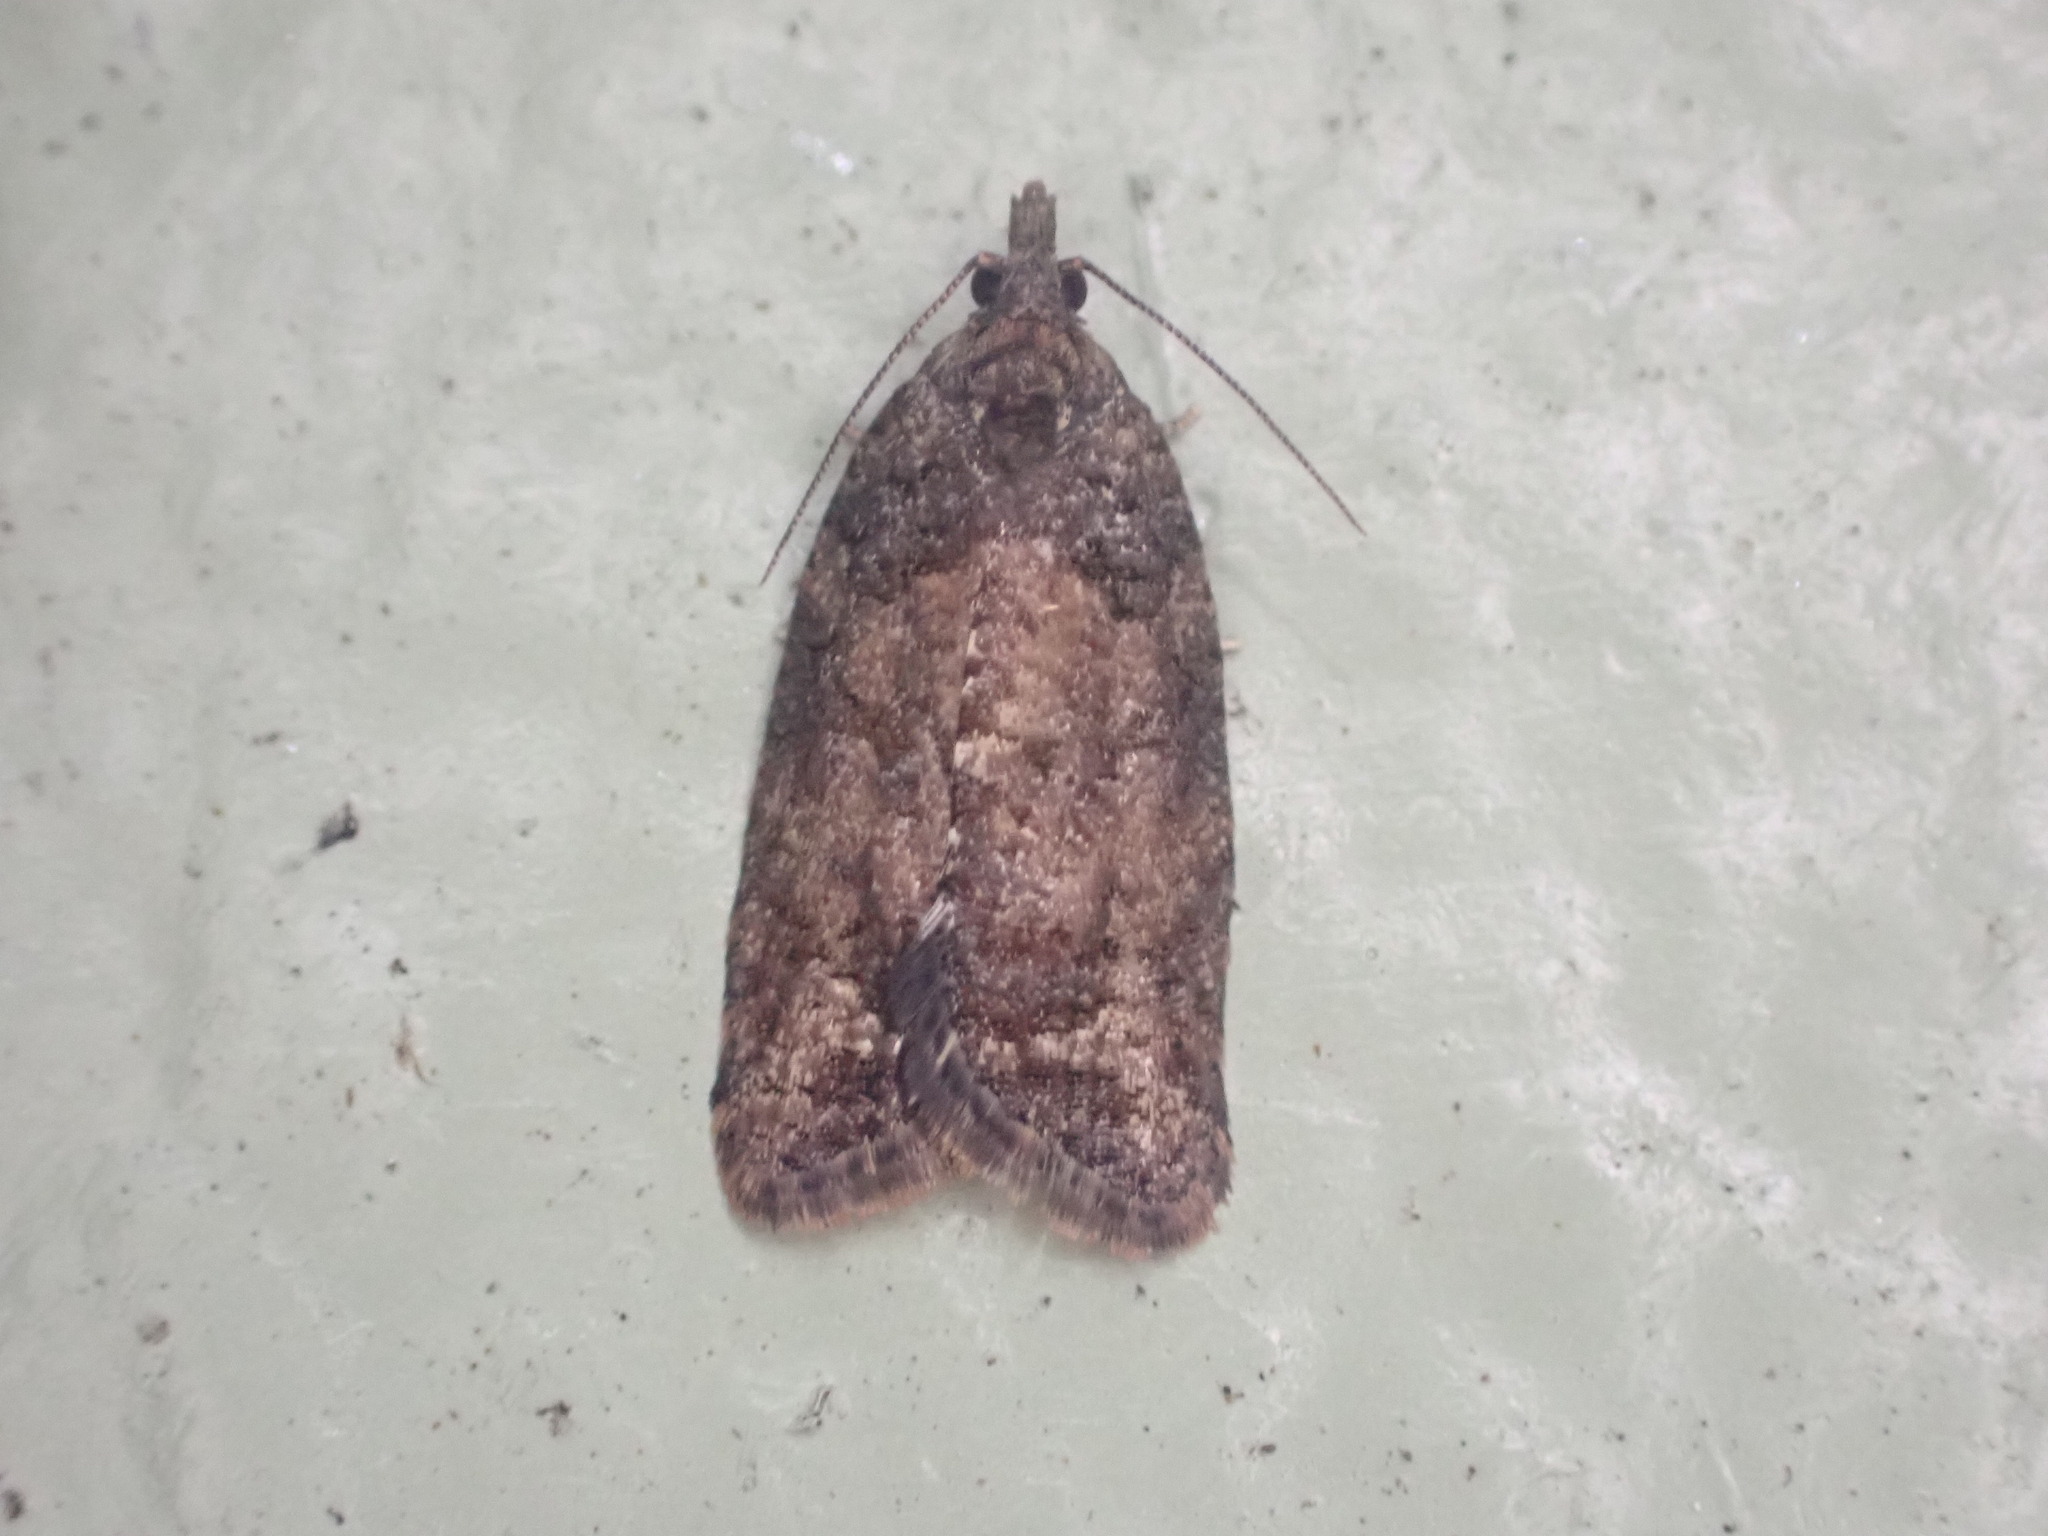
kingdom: Animalia
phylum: Arthropoda
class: Insecta
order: Lepidoptera
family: Tortricidae
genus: Capua
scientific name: Capua intractana
